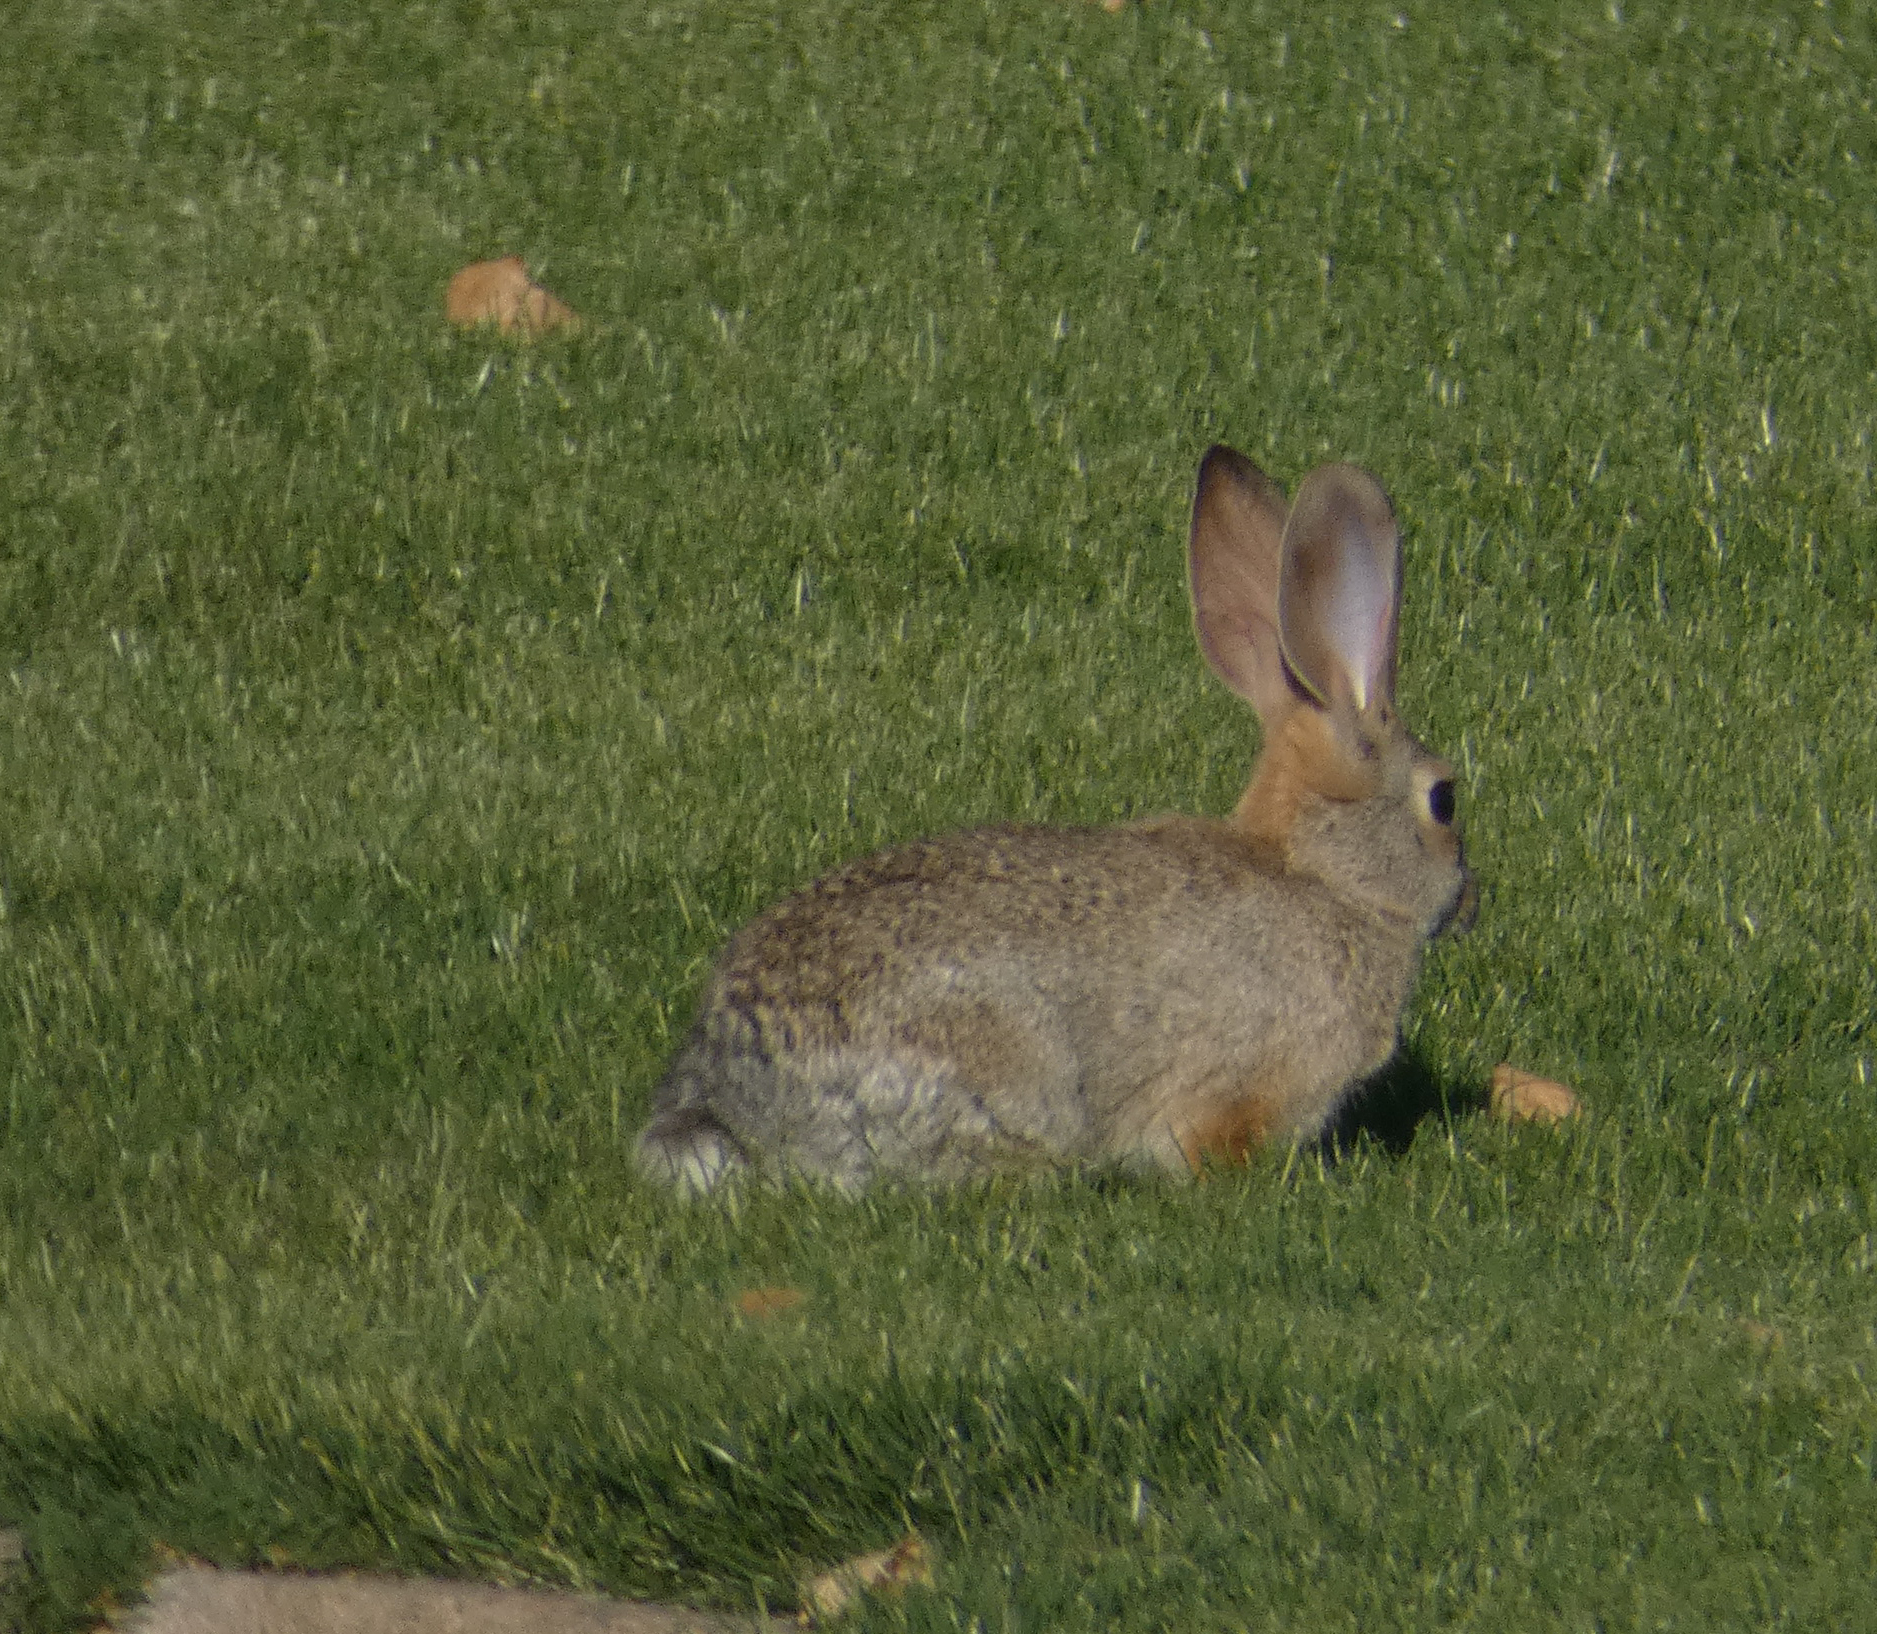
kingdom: Animalia
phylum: Chordata
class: Mammalia
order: Lagomorpha
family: Leporidae
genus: Sylvilagus
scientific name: Sylvilagus audubonii
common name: Desert cottontail
